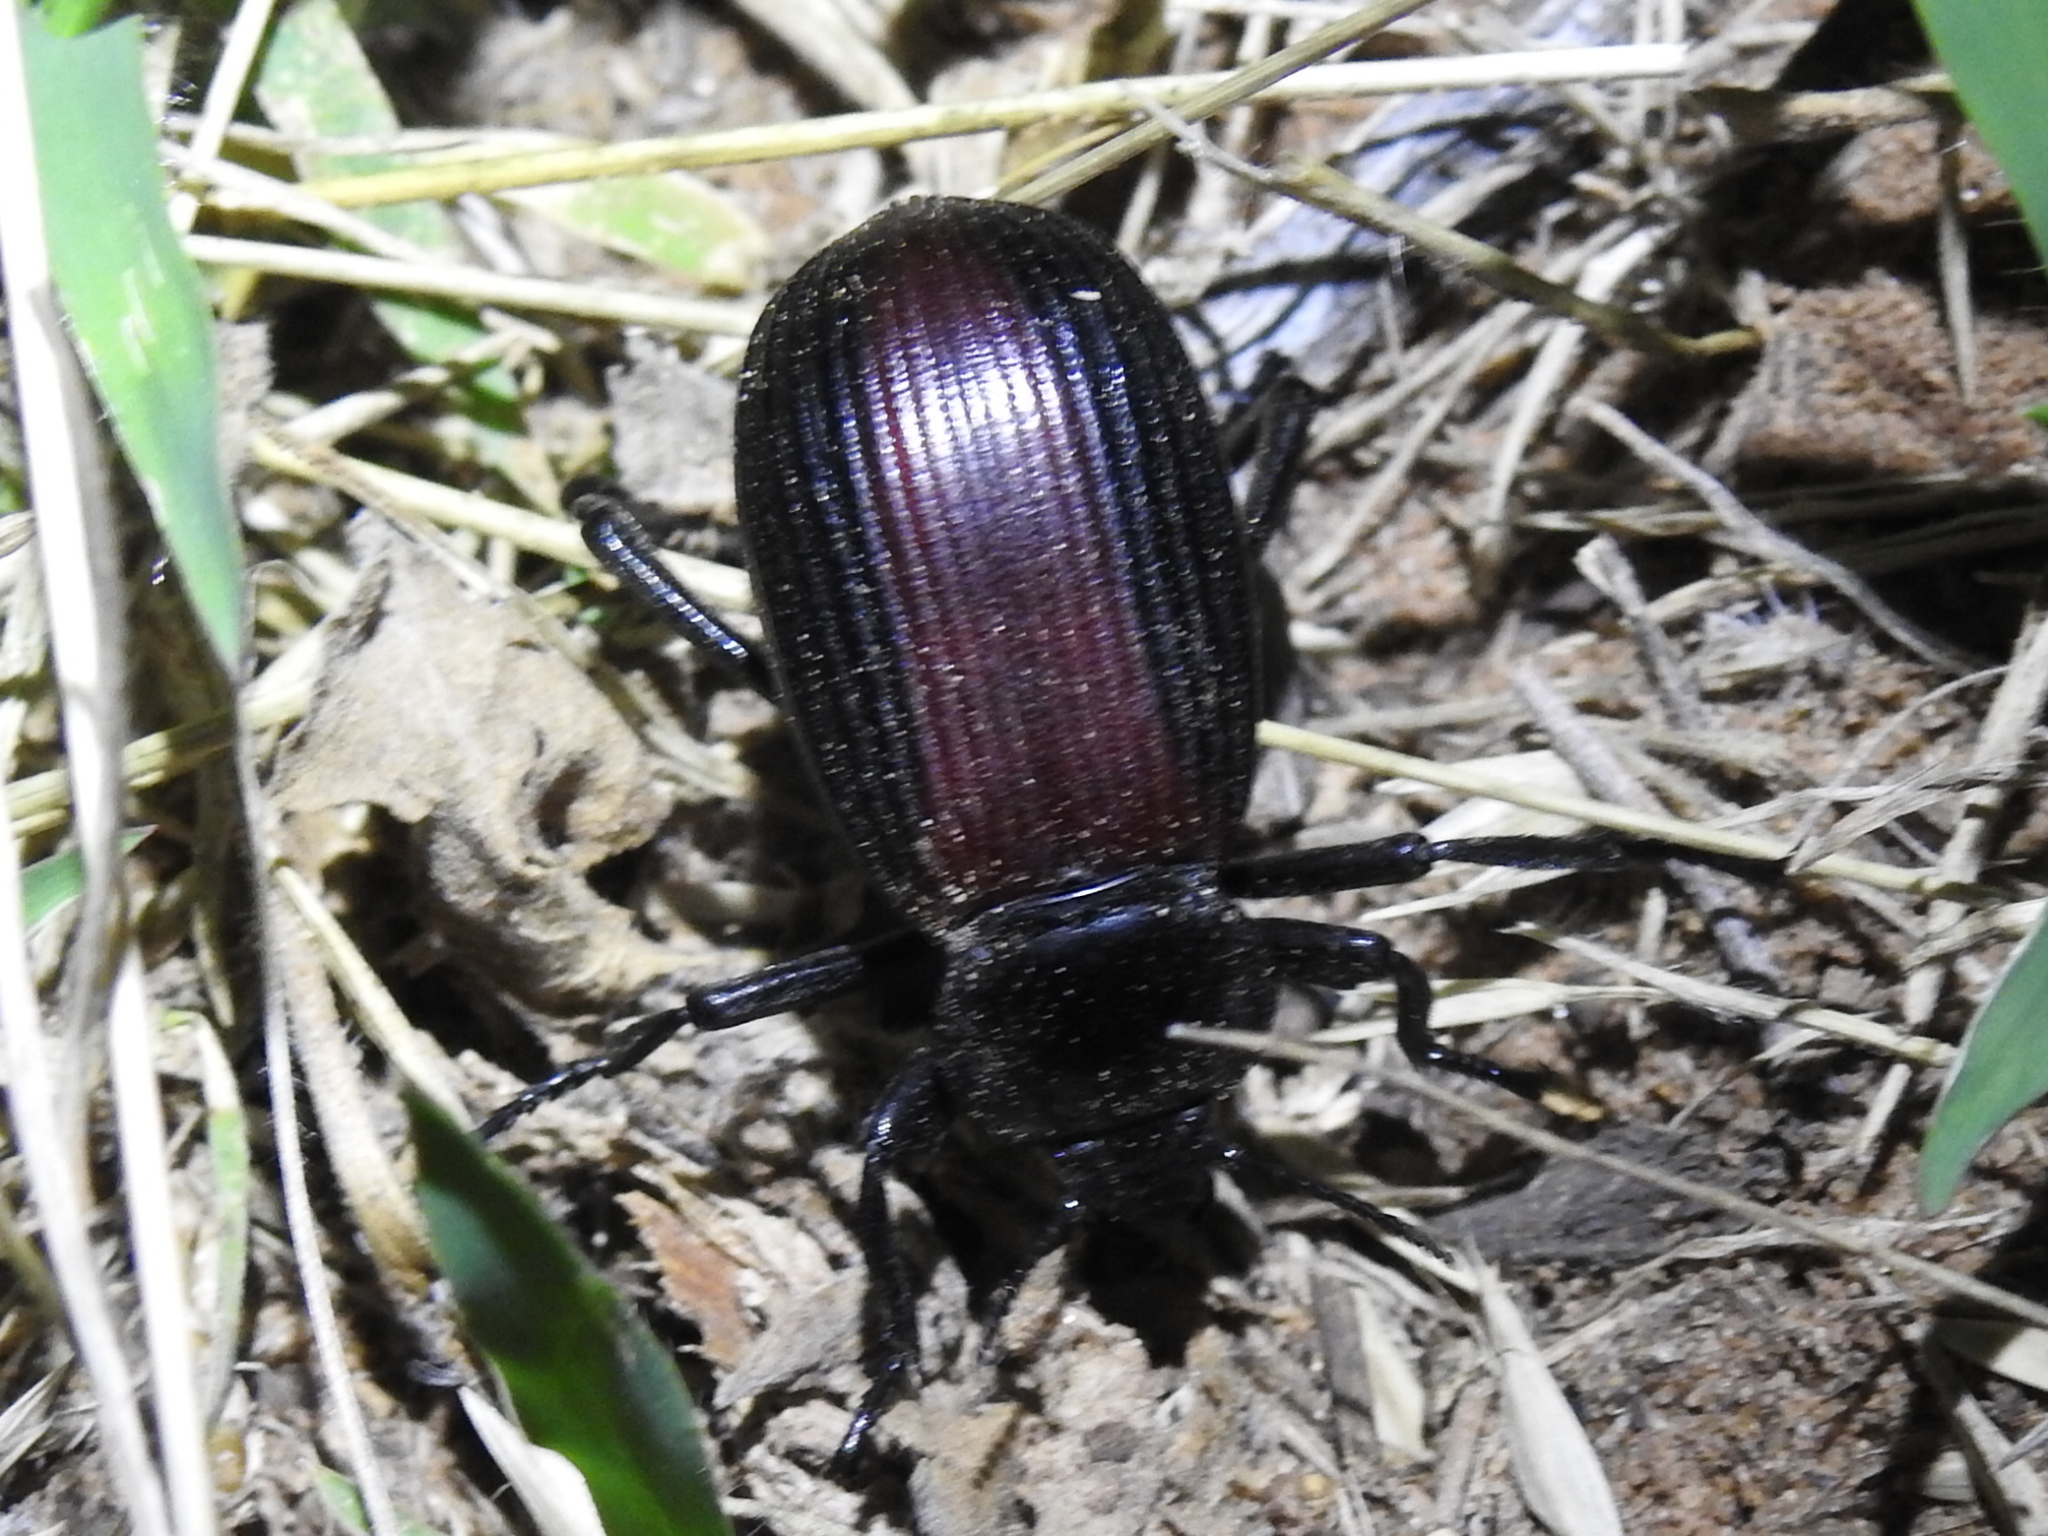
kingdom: Animalia
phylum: Arthropoda
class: Insecta
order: Coleoptera
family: Tenebrionidae
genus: Eleodes
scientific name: Eleodes acuta
